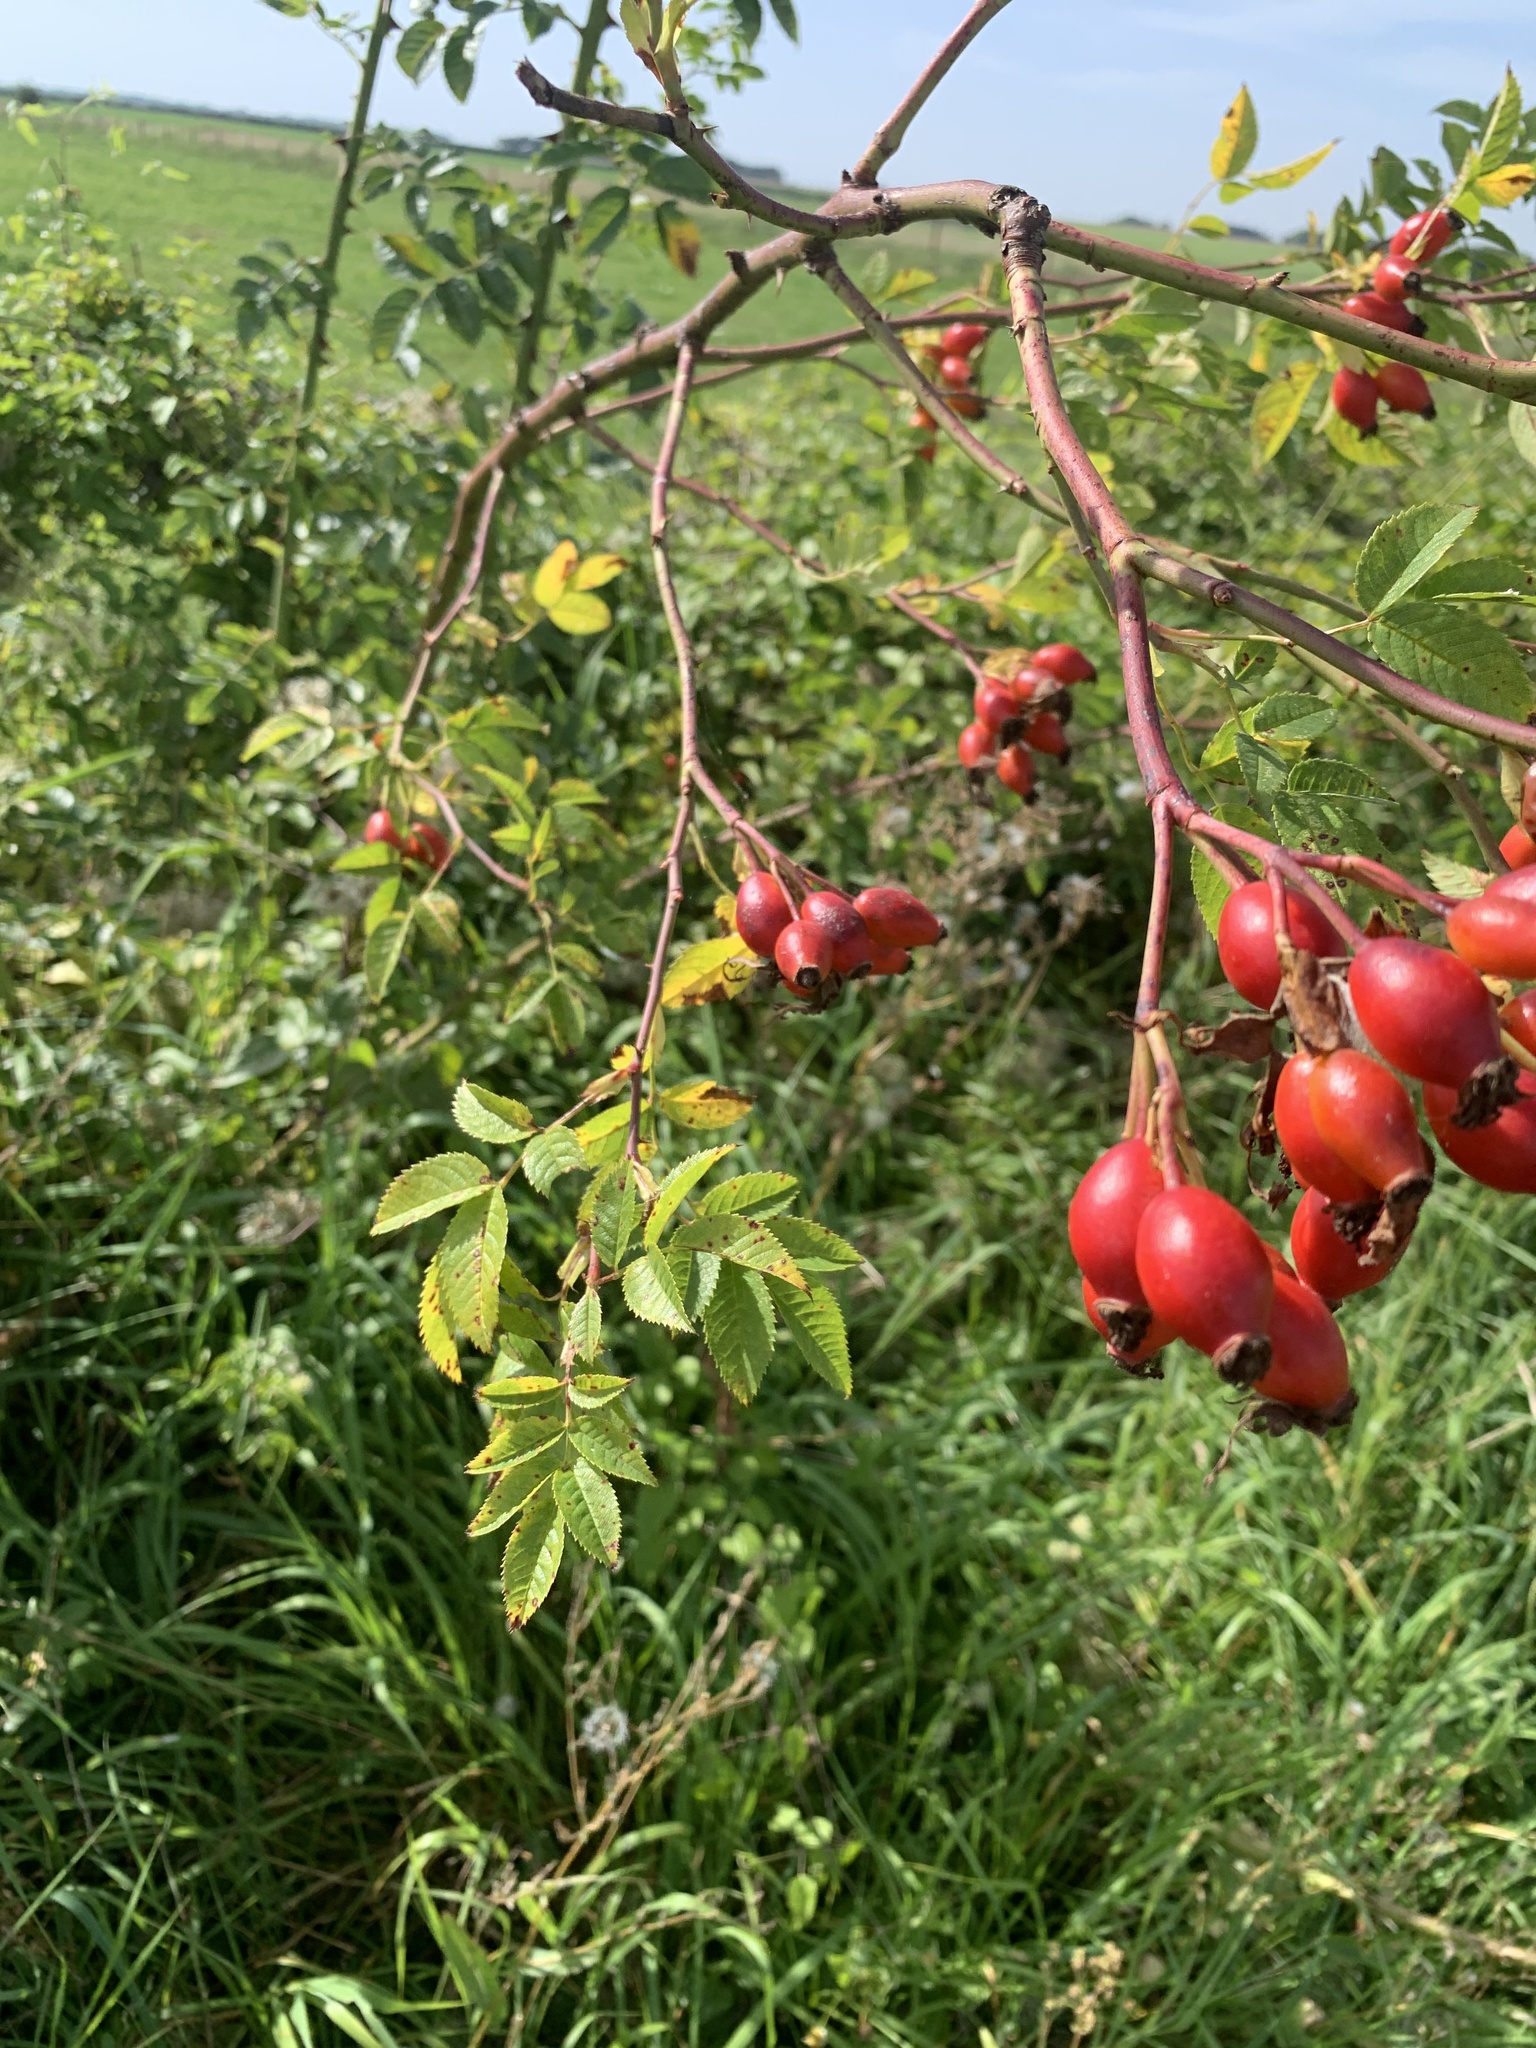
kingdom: Plantae
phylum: Tracheophyta
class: Magnoliopsida
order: Rosales
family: Rosaceae
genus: Rosa
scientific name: Rosa canina
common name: Dog rose
